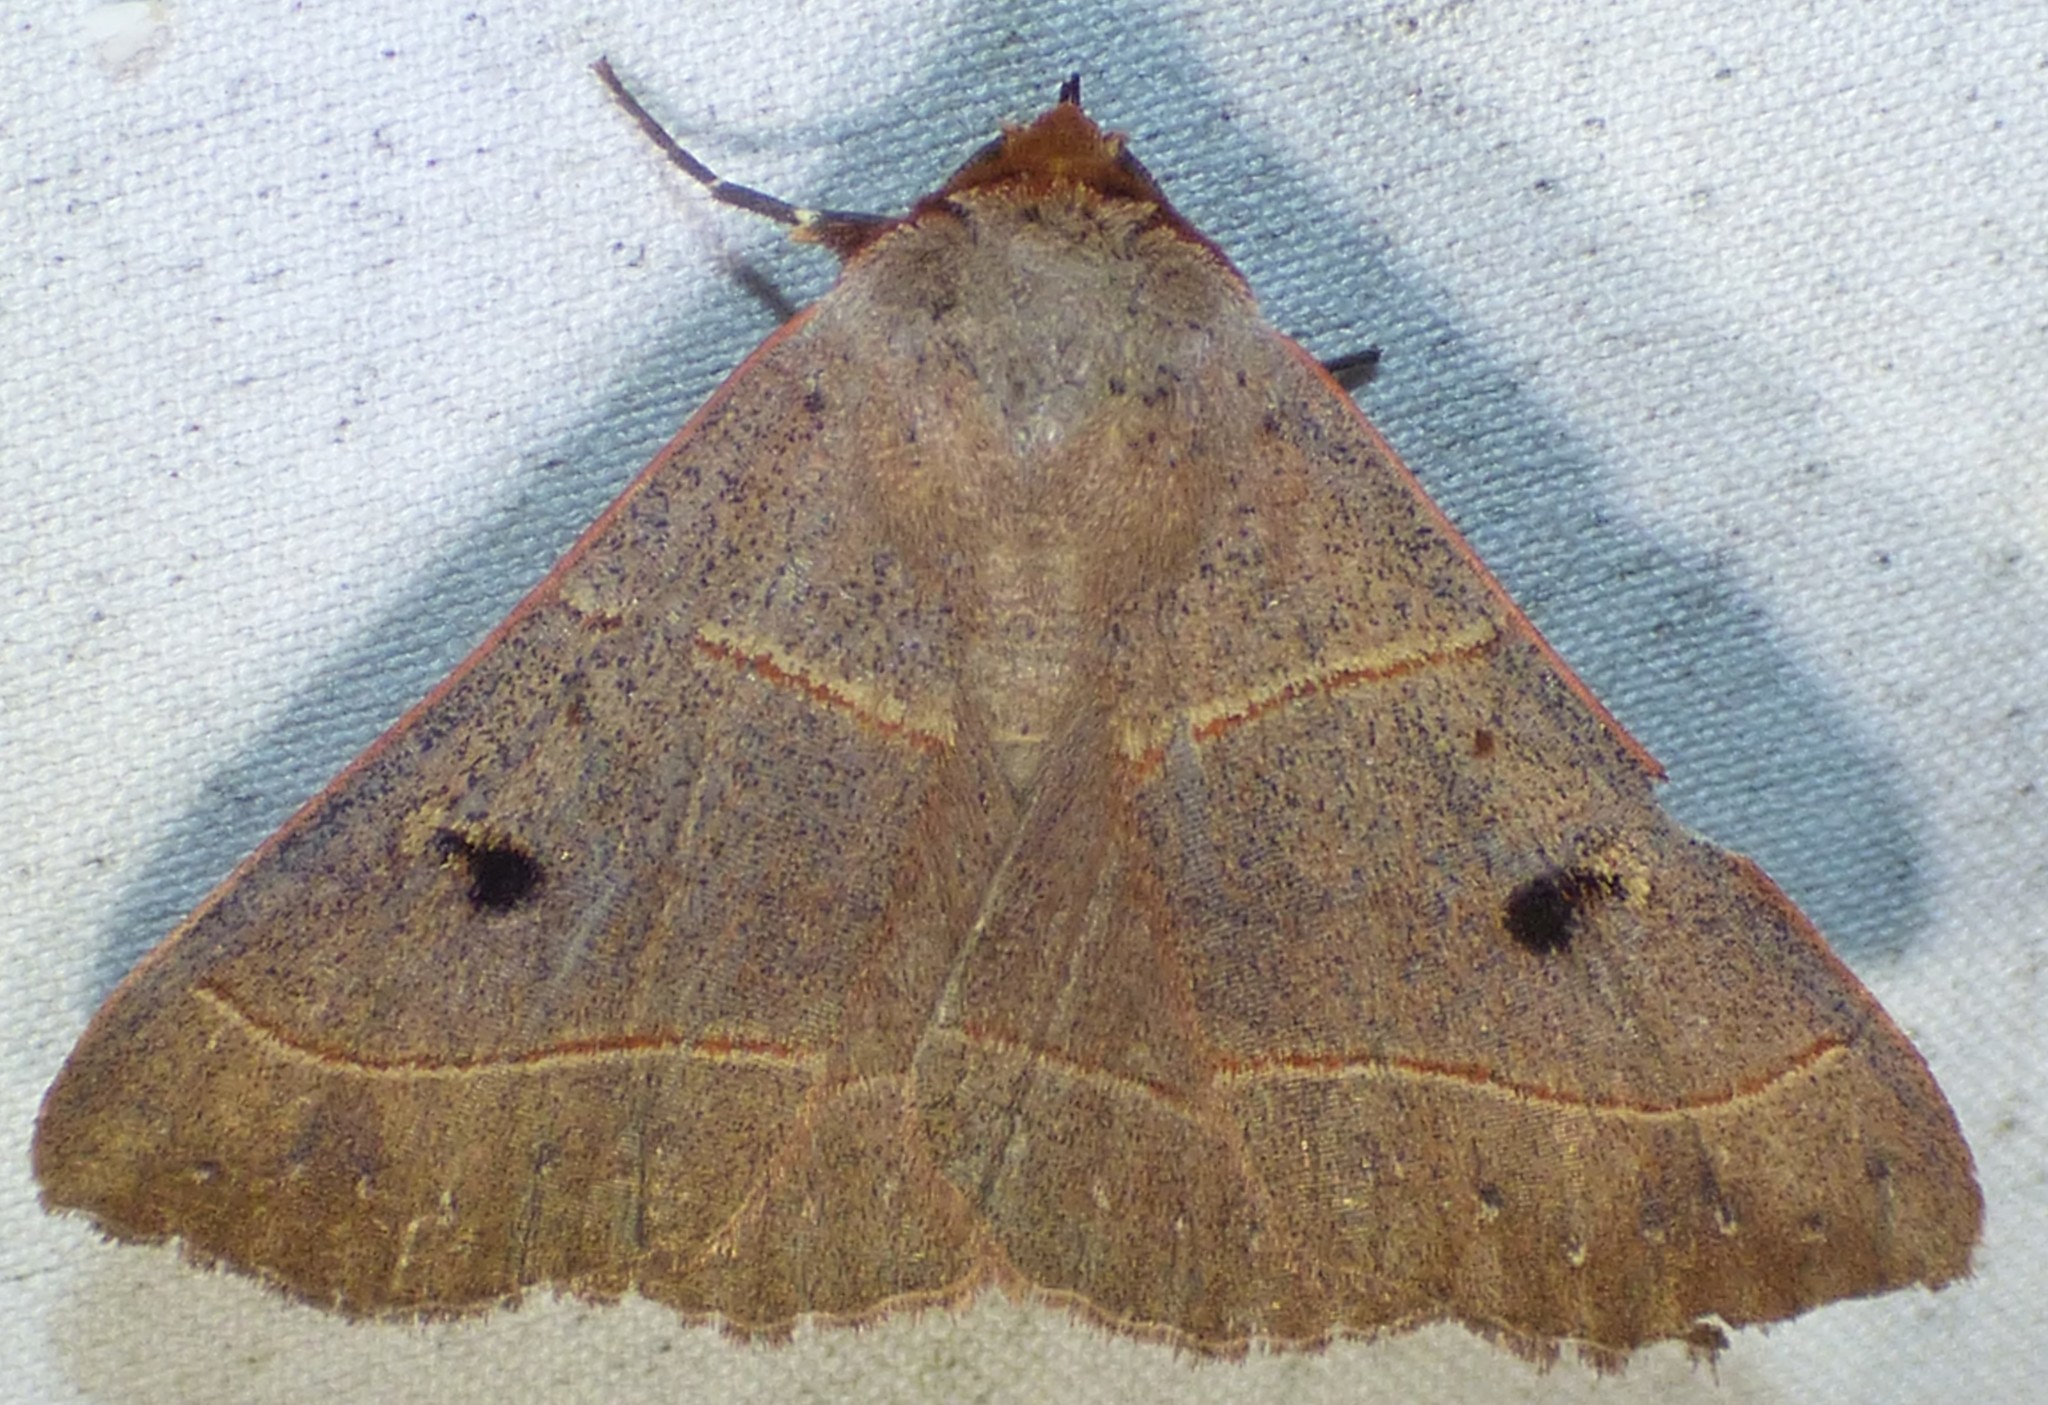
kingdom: Animalia
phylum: Arthropoda
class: Insecta
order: Lepidoptera
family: Erebidae
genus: Panopoda
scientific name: Panopoda rufimargo
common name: Red-lined panopoda moth
